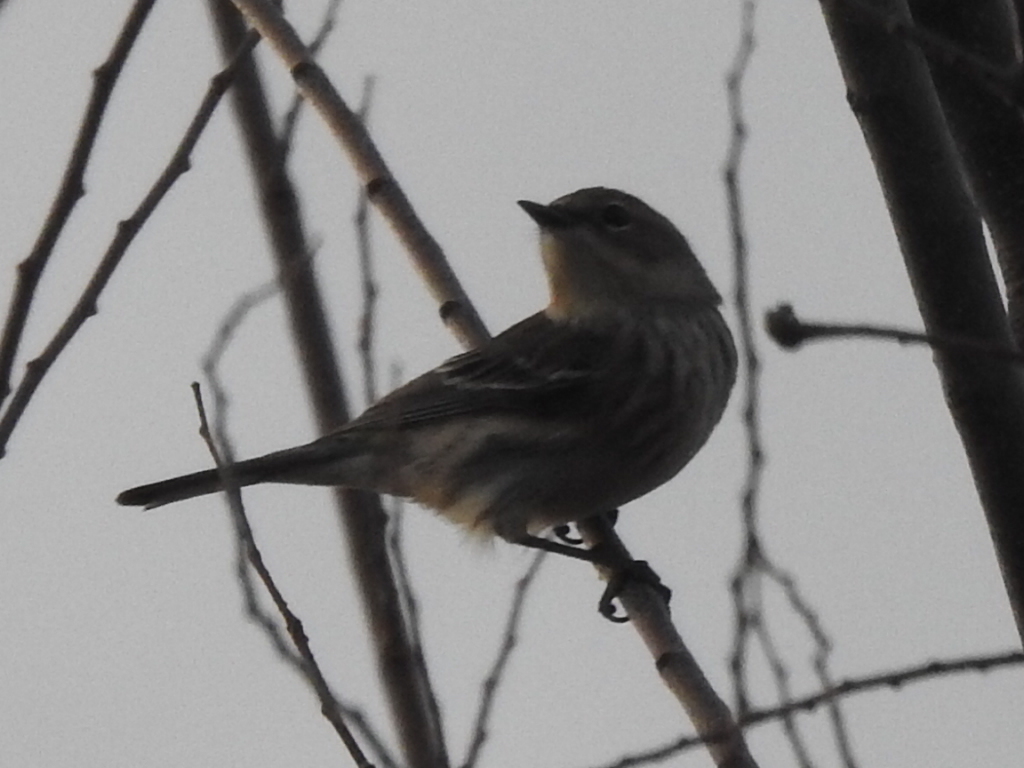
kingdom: Animalia
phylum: Chordata
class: Aves
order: Passeriformes
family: Parulidae
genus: Setophaga
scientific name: Setophaga coronata
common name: Myrtle warbler
